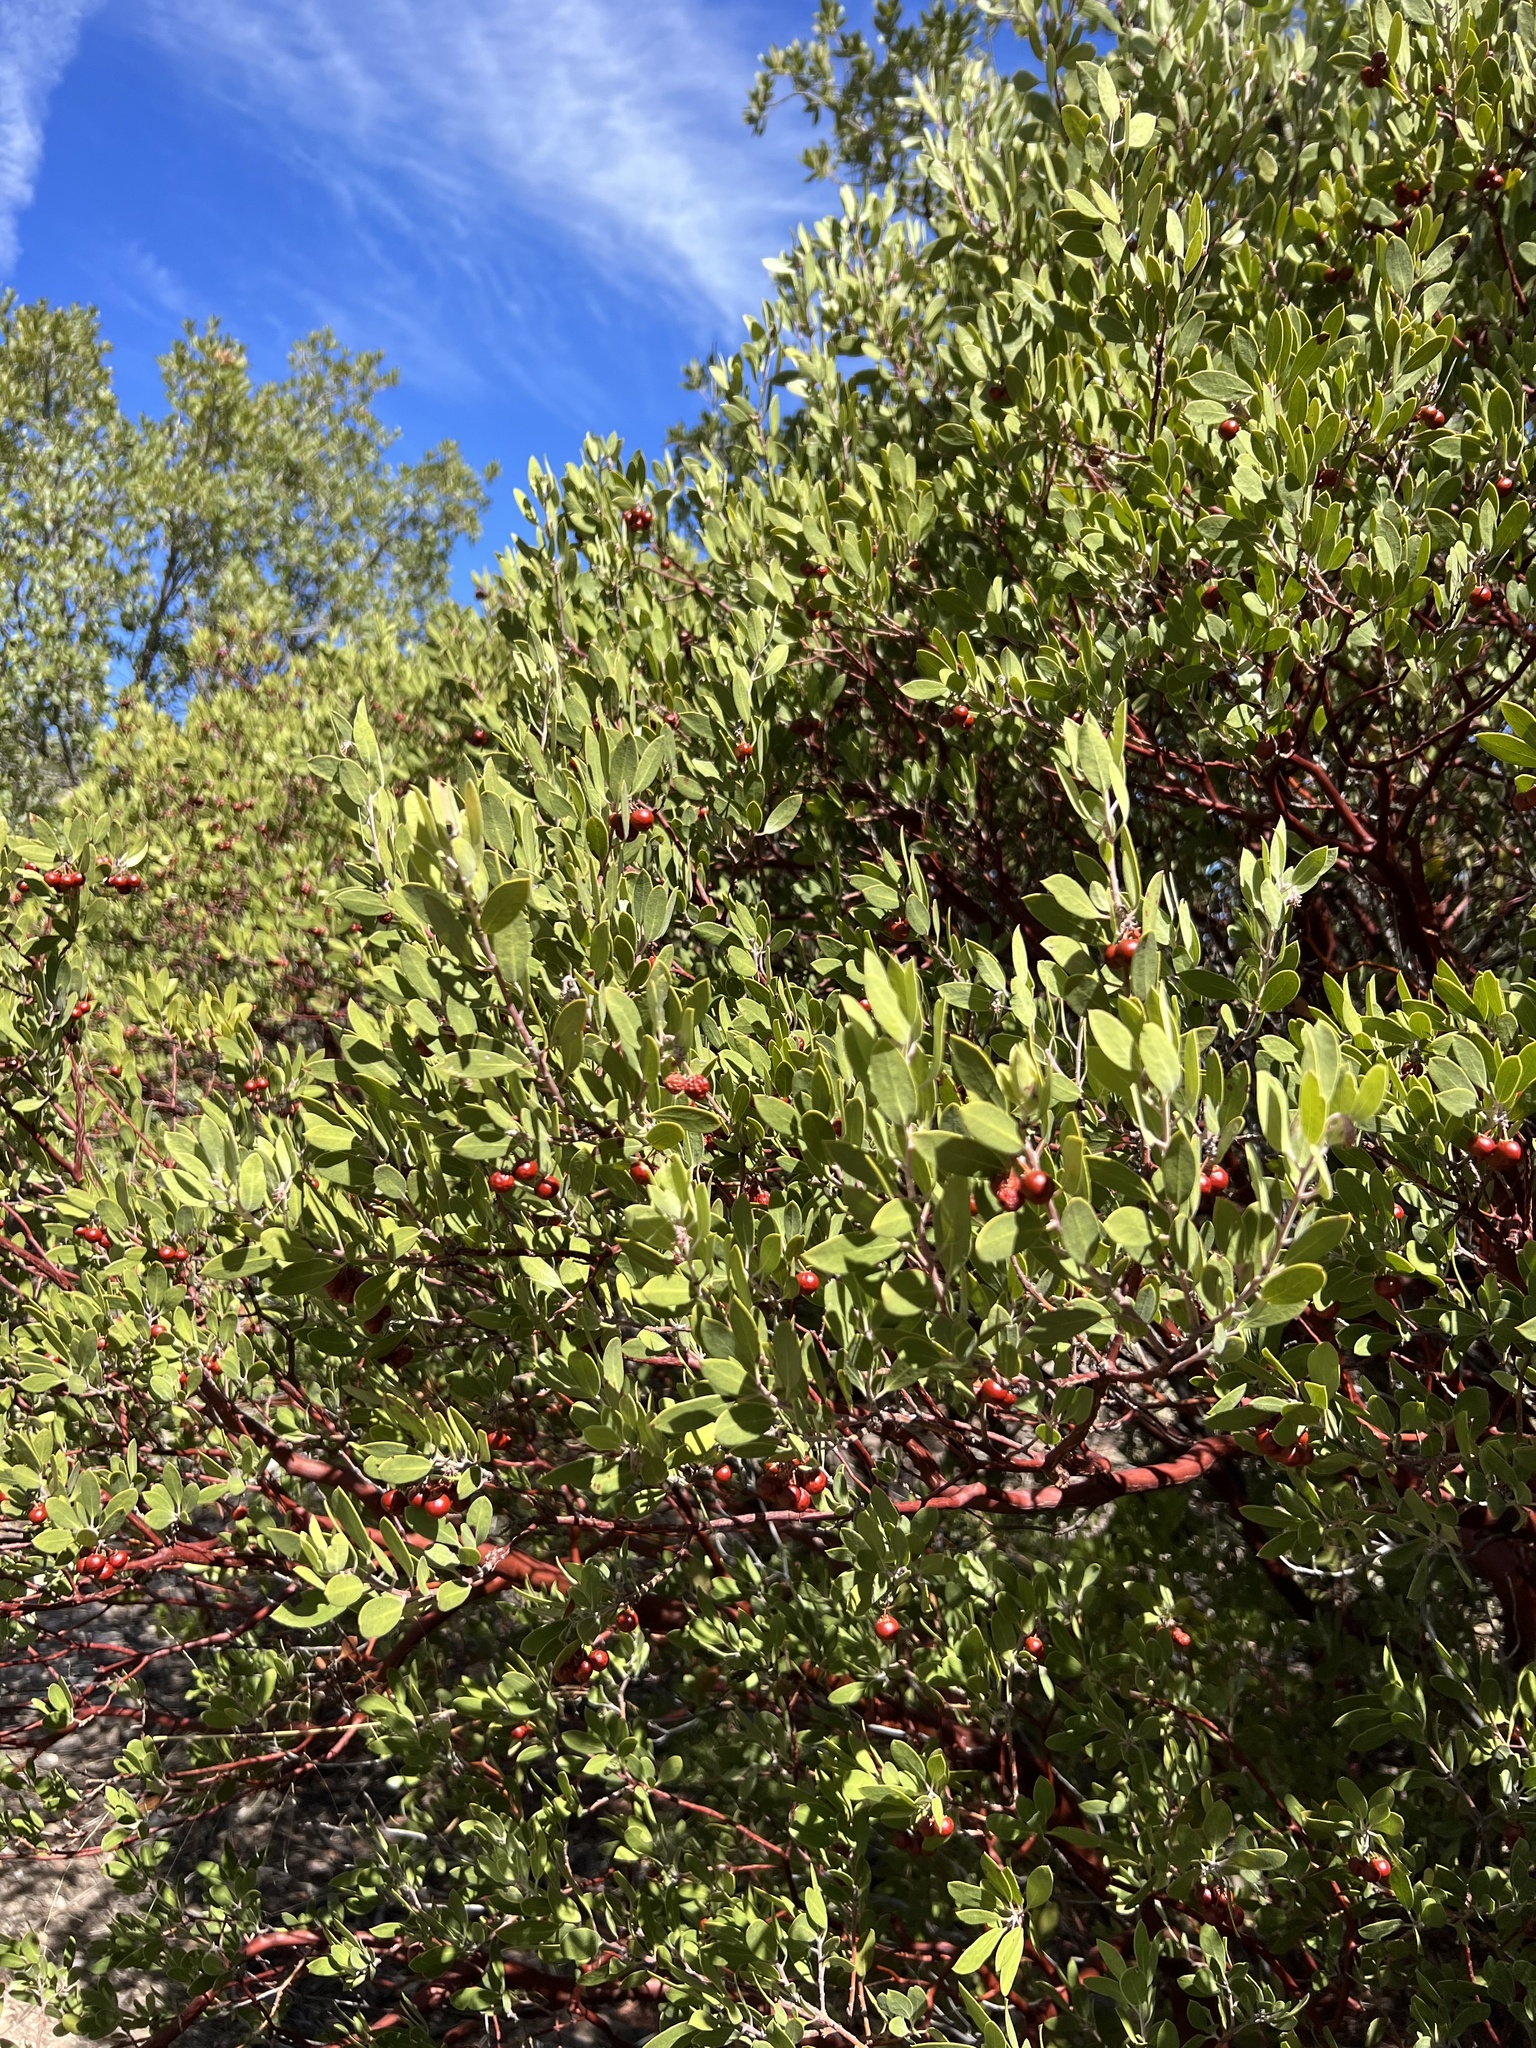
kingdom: Plantae
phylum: Tracheophyta
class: Magnoliopsida
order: Ericales
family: Ericaceae
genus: Arctostaphylos
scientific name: Arctostaphylos pungens
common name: Mexican manzanita
